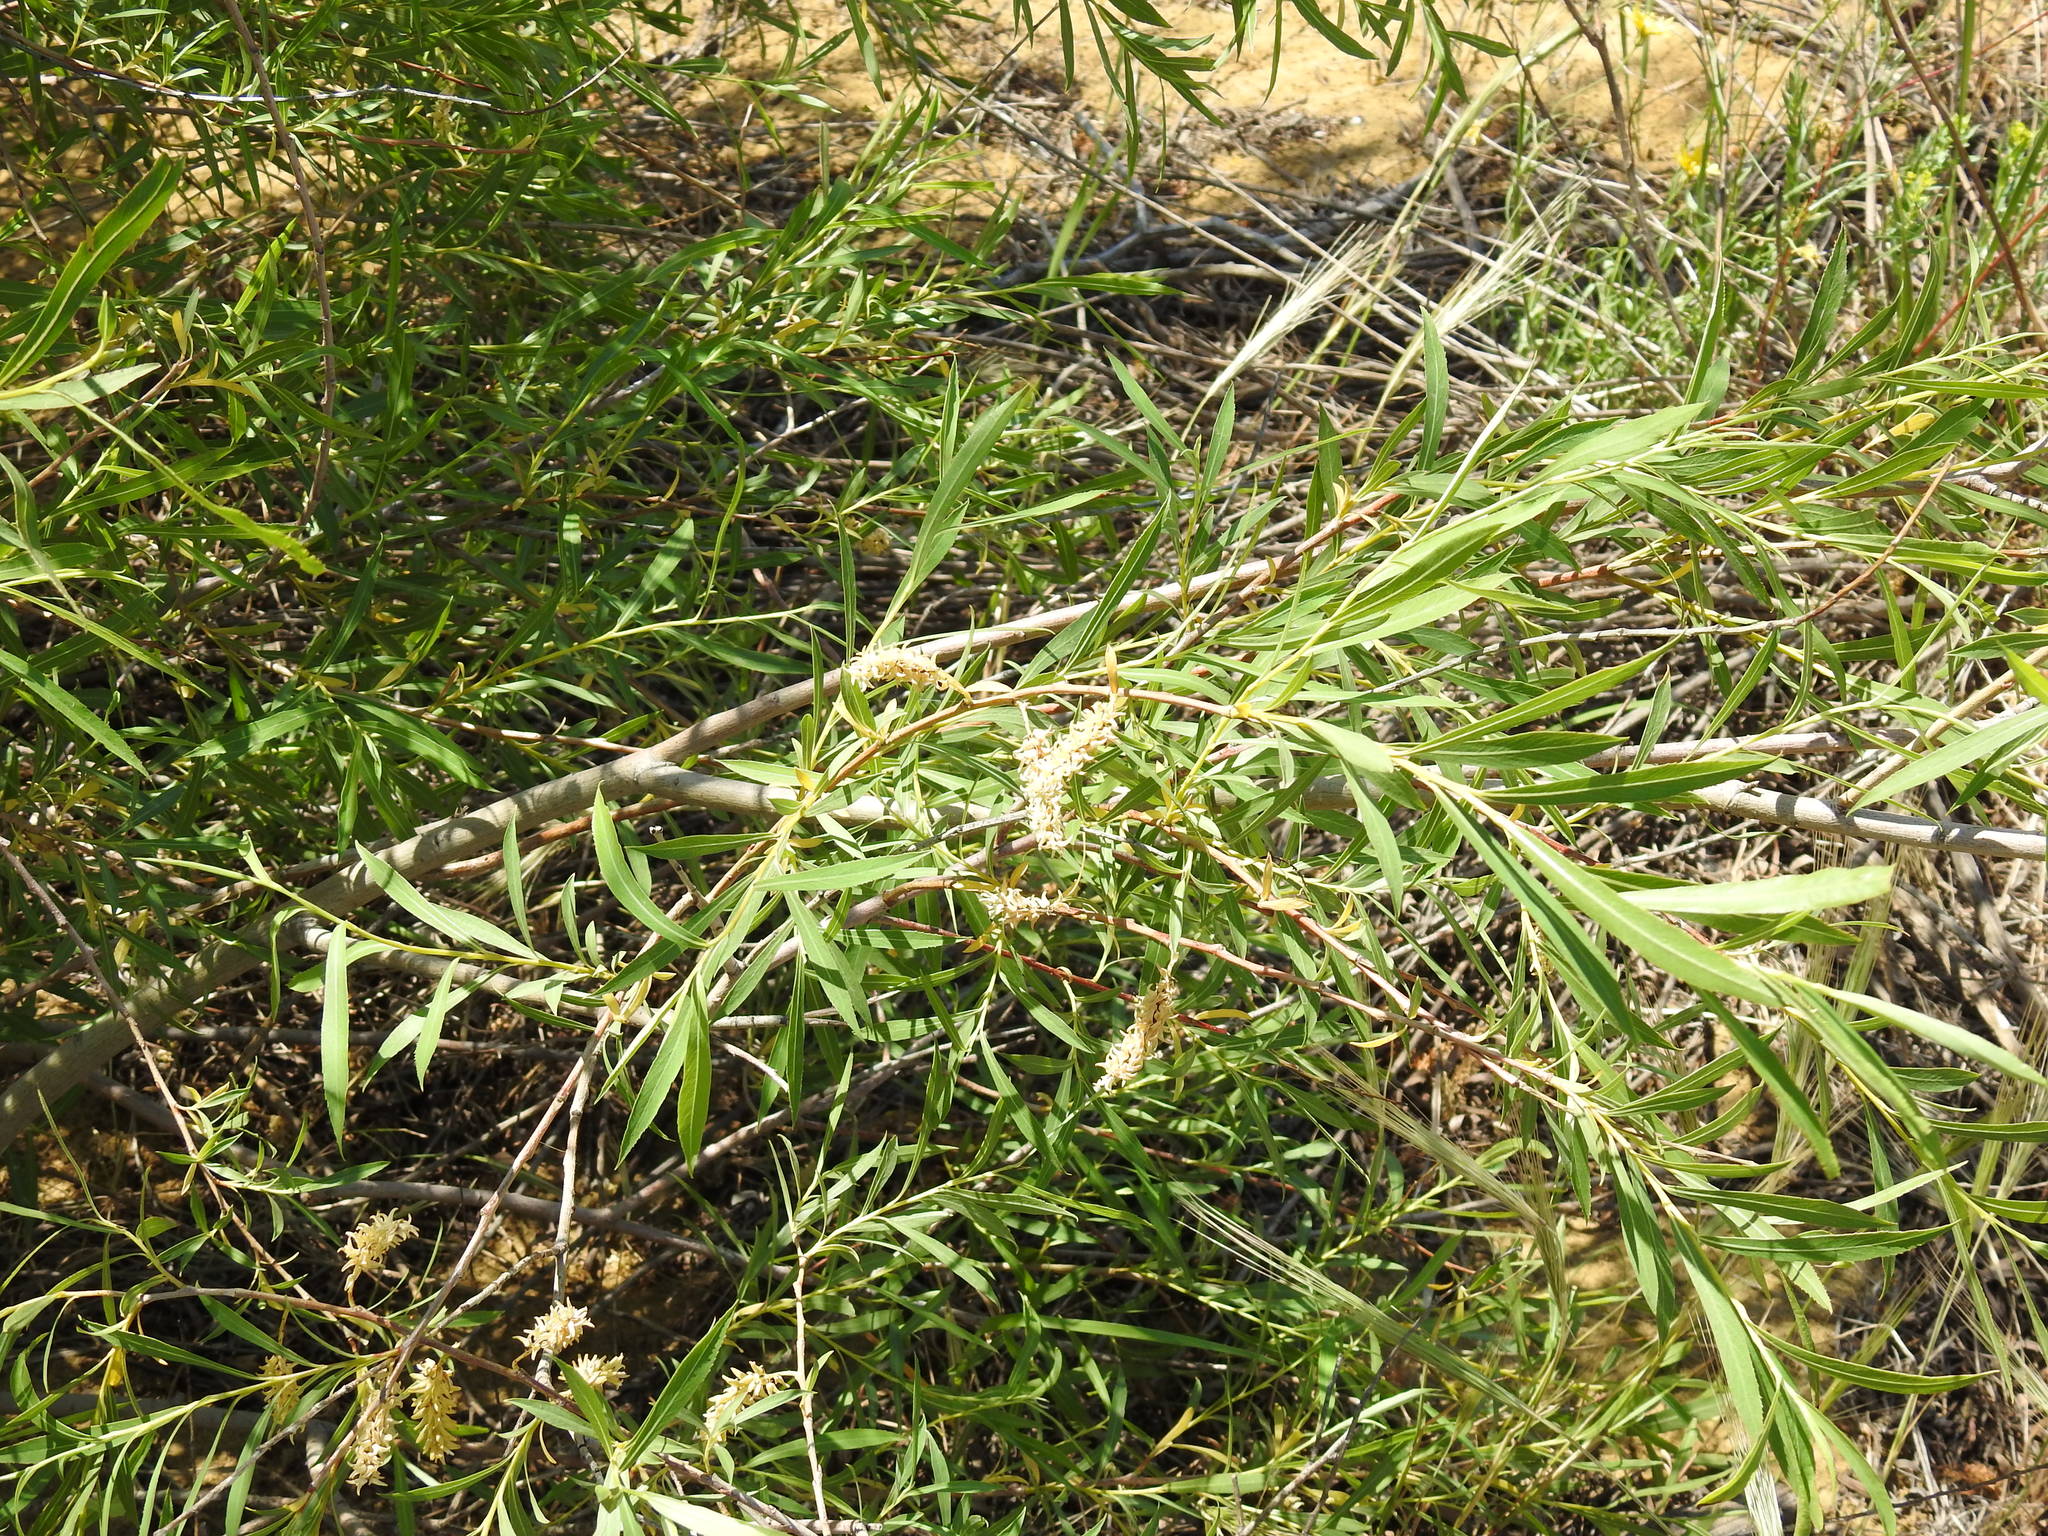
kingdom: Plantae
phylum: Tracheophyta
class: Magnoliopsida
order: Malpighiales
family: Salicaceae
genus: Salix
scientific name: Salix caspica
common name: Caspian willow
